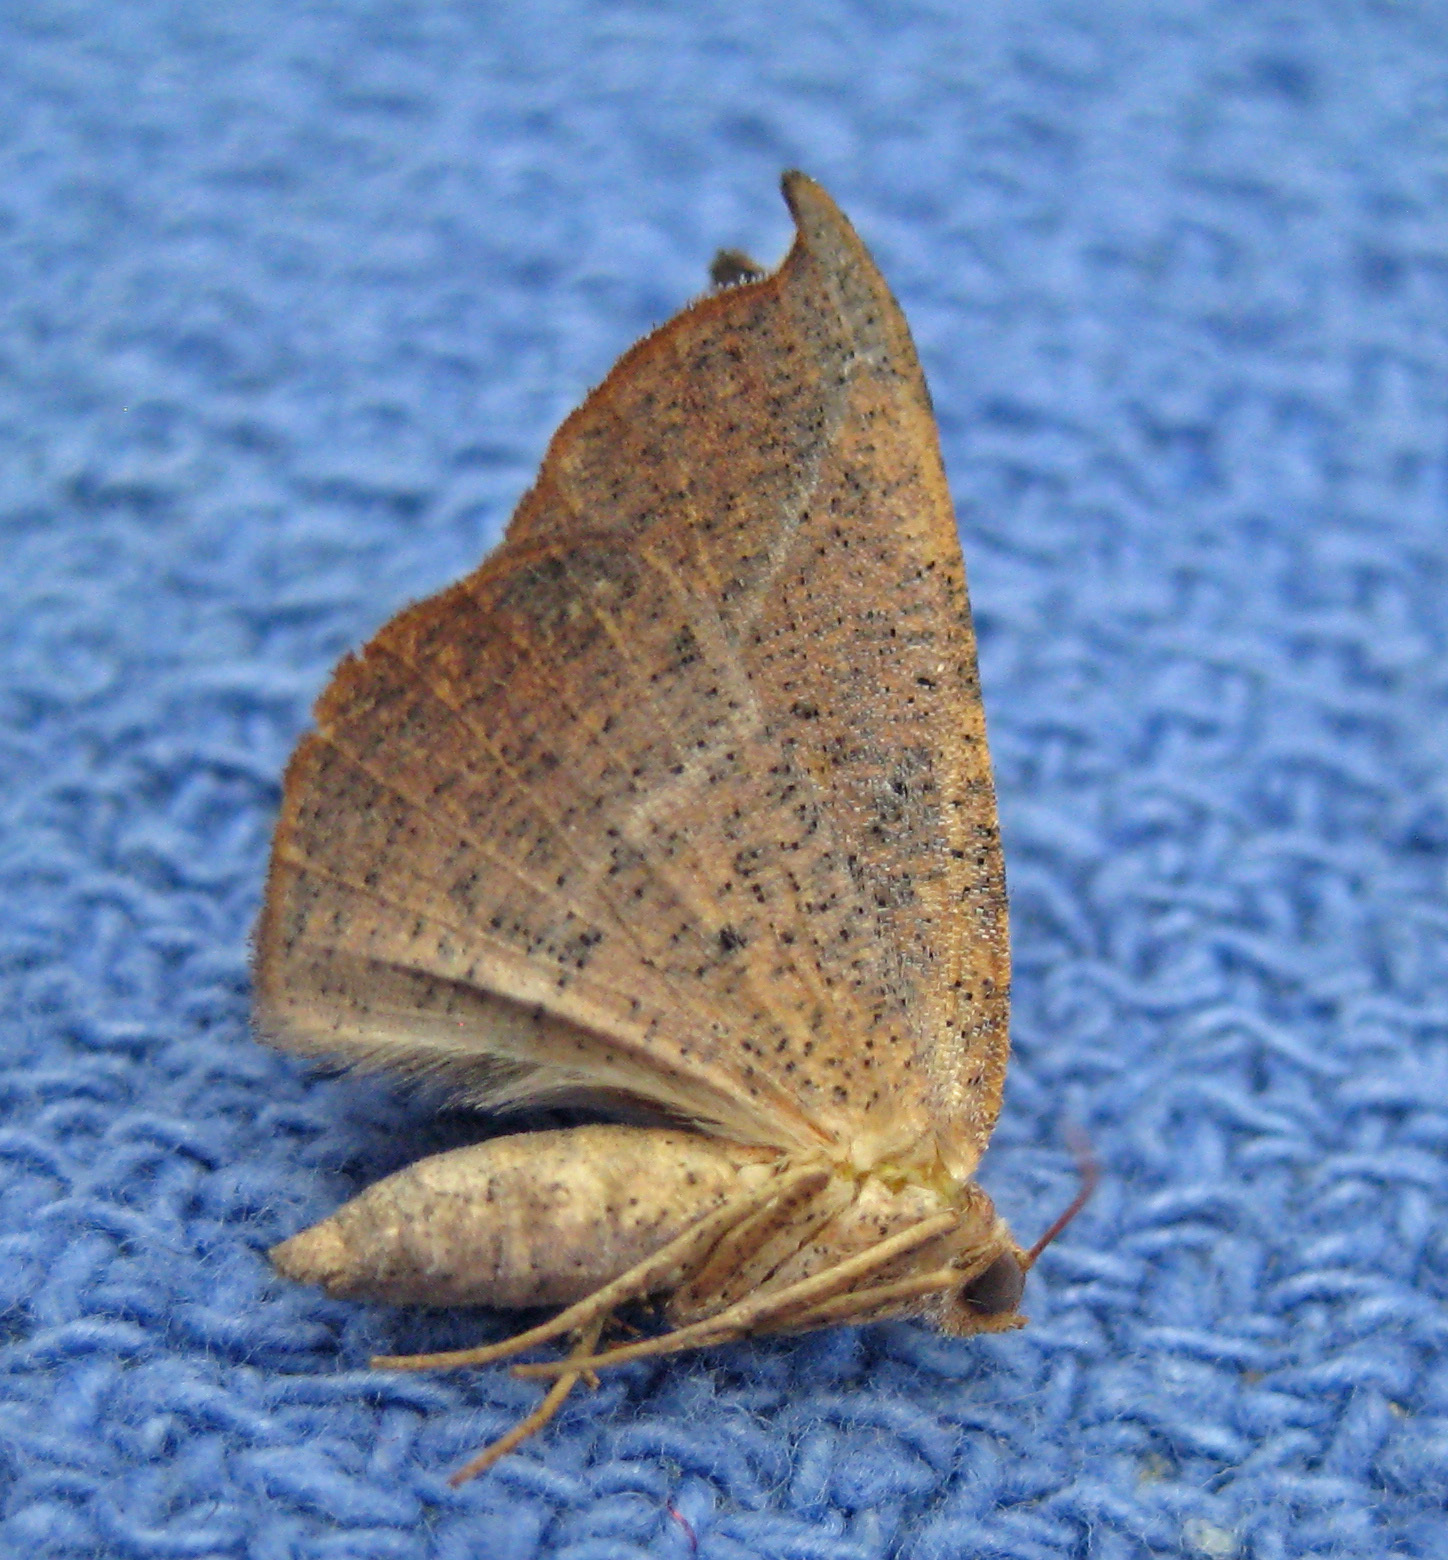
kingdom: Animalia
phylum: Arthropoda
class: Insecta
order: Lepidoptera
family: Geometridae
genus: Patalene
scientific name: Patalene olyzonaria
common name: Juniper geometer moth
